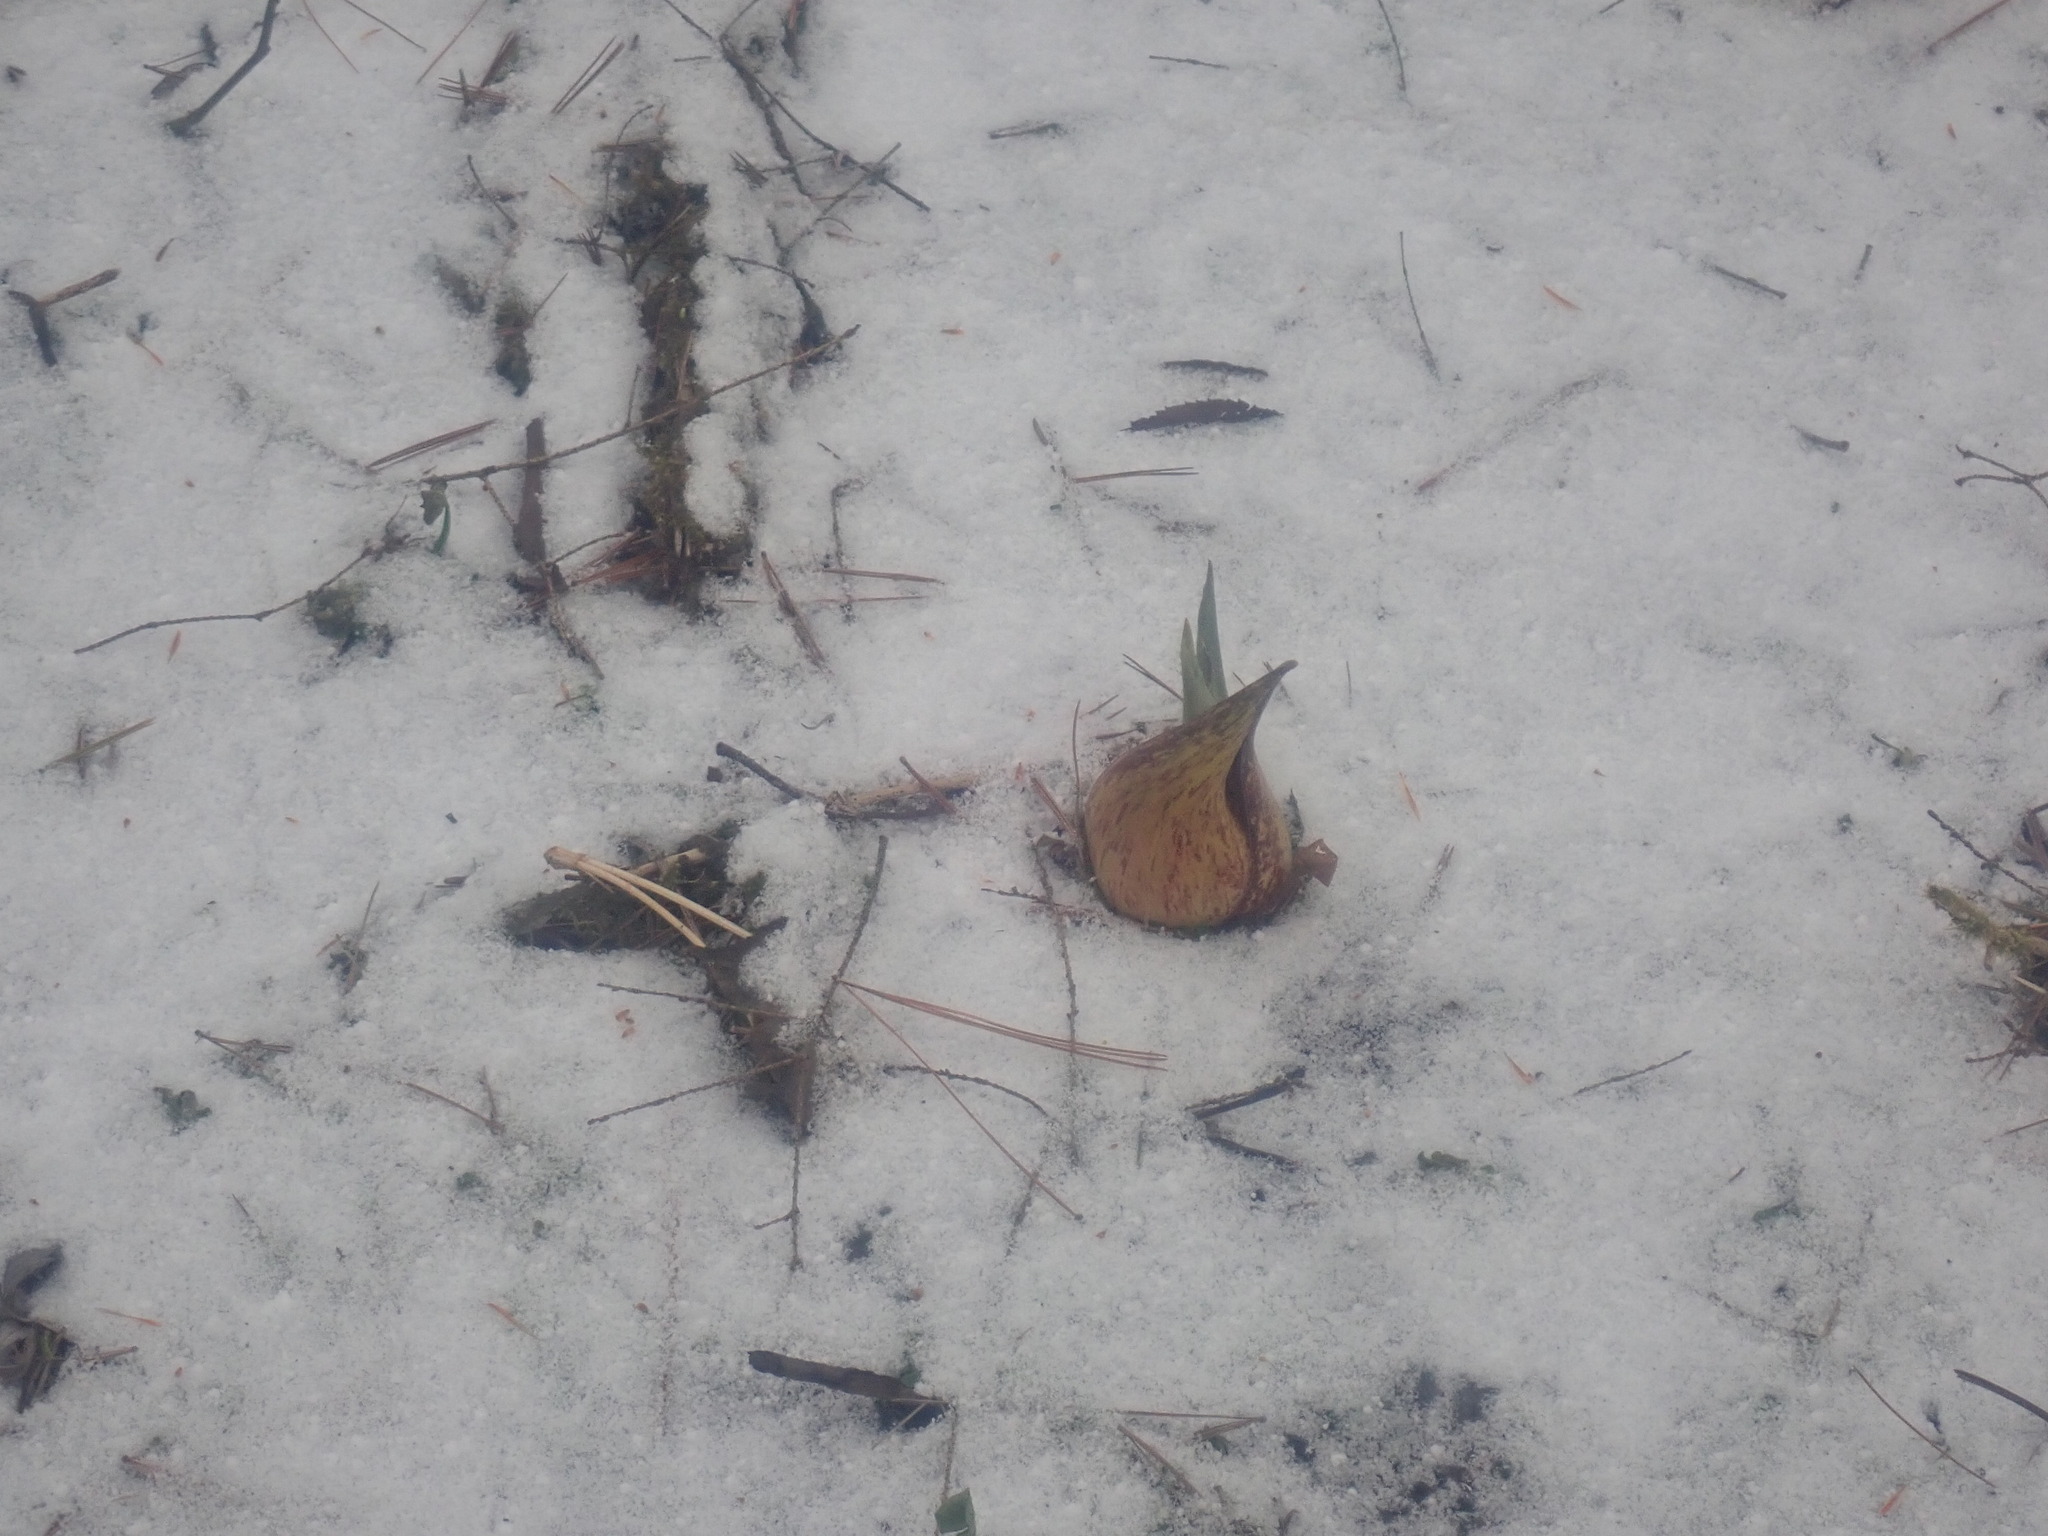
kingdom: Plantae
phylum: Tracheophyta
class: Liliopsida
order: Alismatales
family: Araceae
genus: Symplocarpus
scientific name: Symplocarpus foetidus
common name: Eastern skunk cabbage
